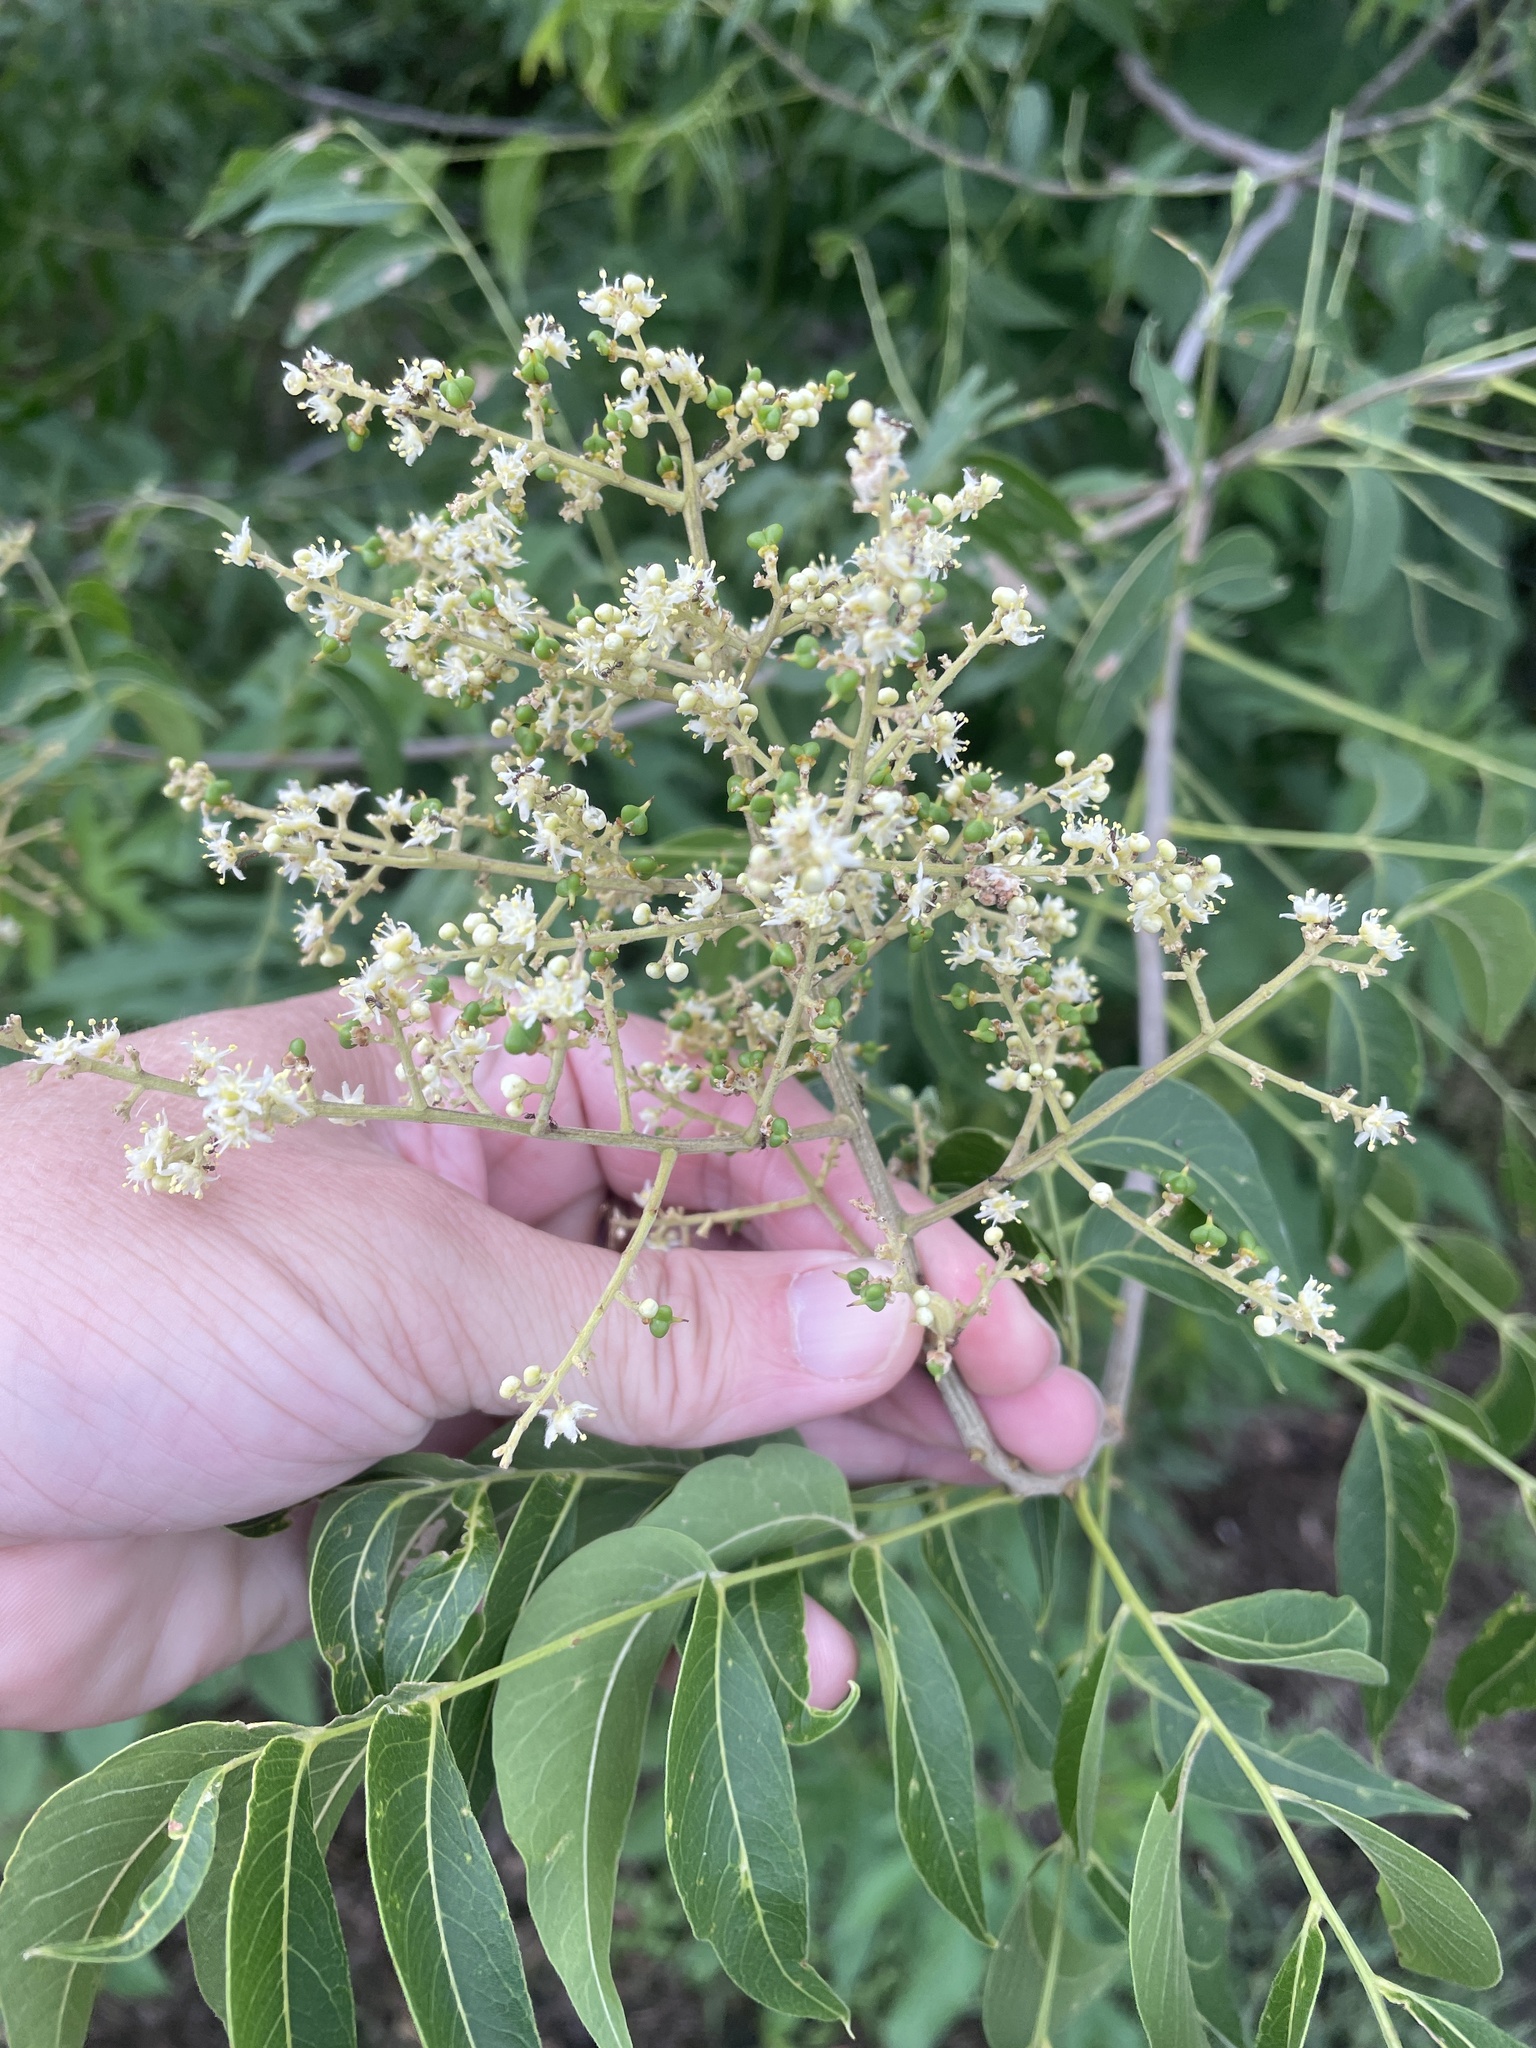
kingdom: Plantae
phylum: Tracheophyta
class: Magnoliopsida
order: Sapindales
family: Sapindaceae
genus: Sapindus
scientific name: Sapindus drummondii
